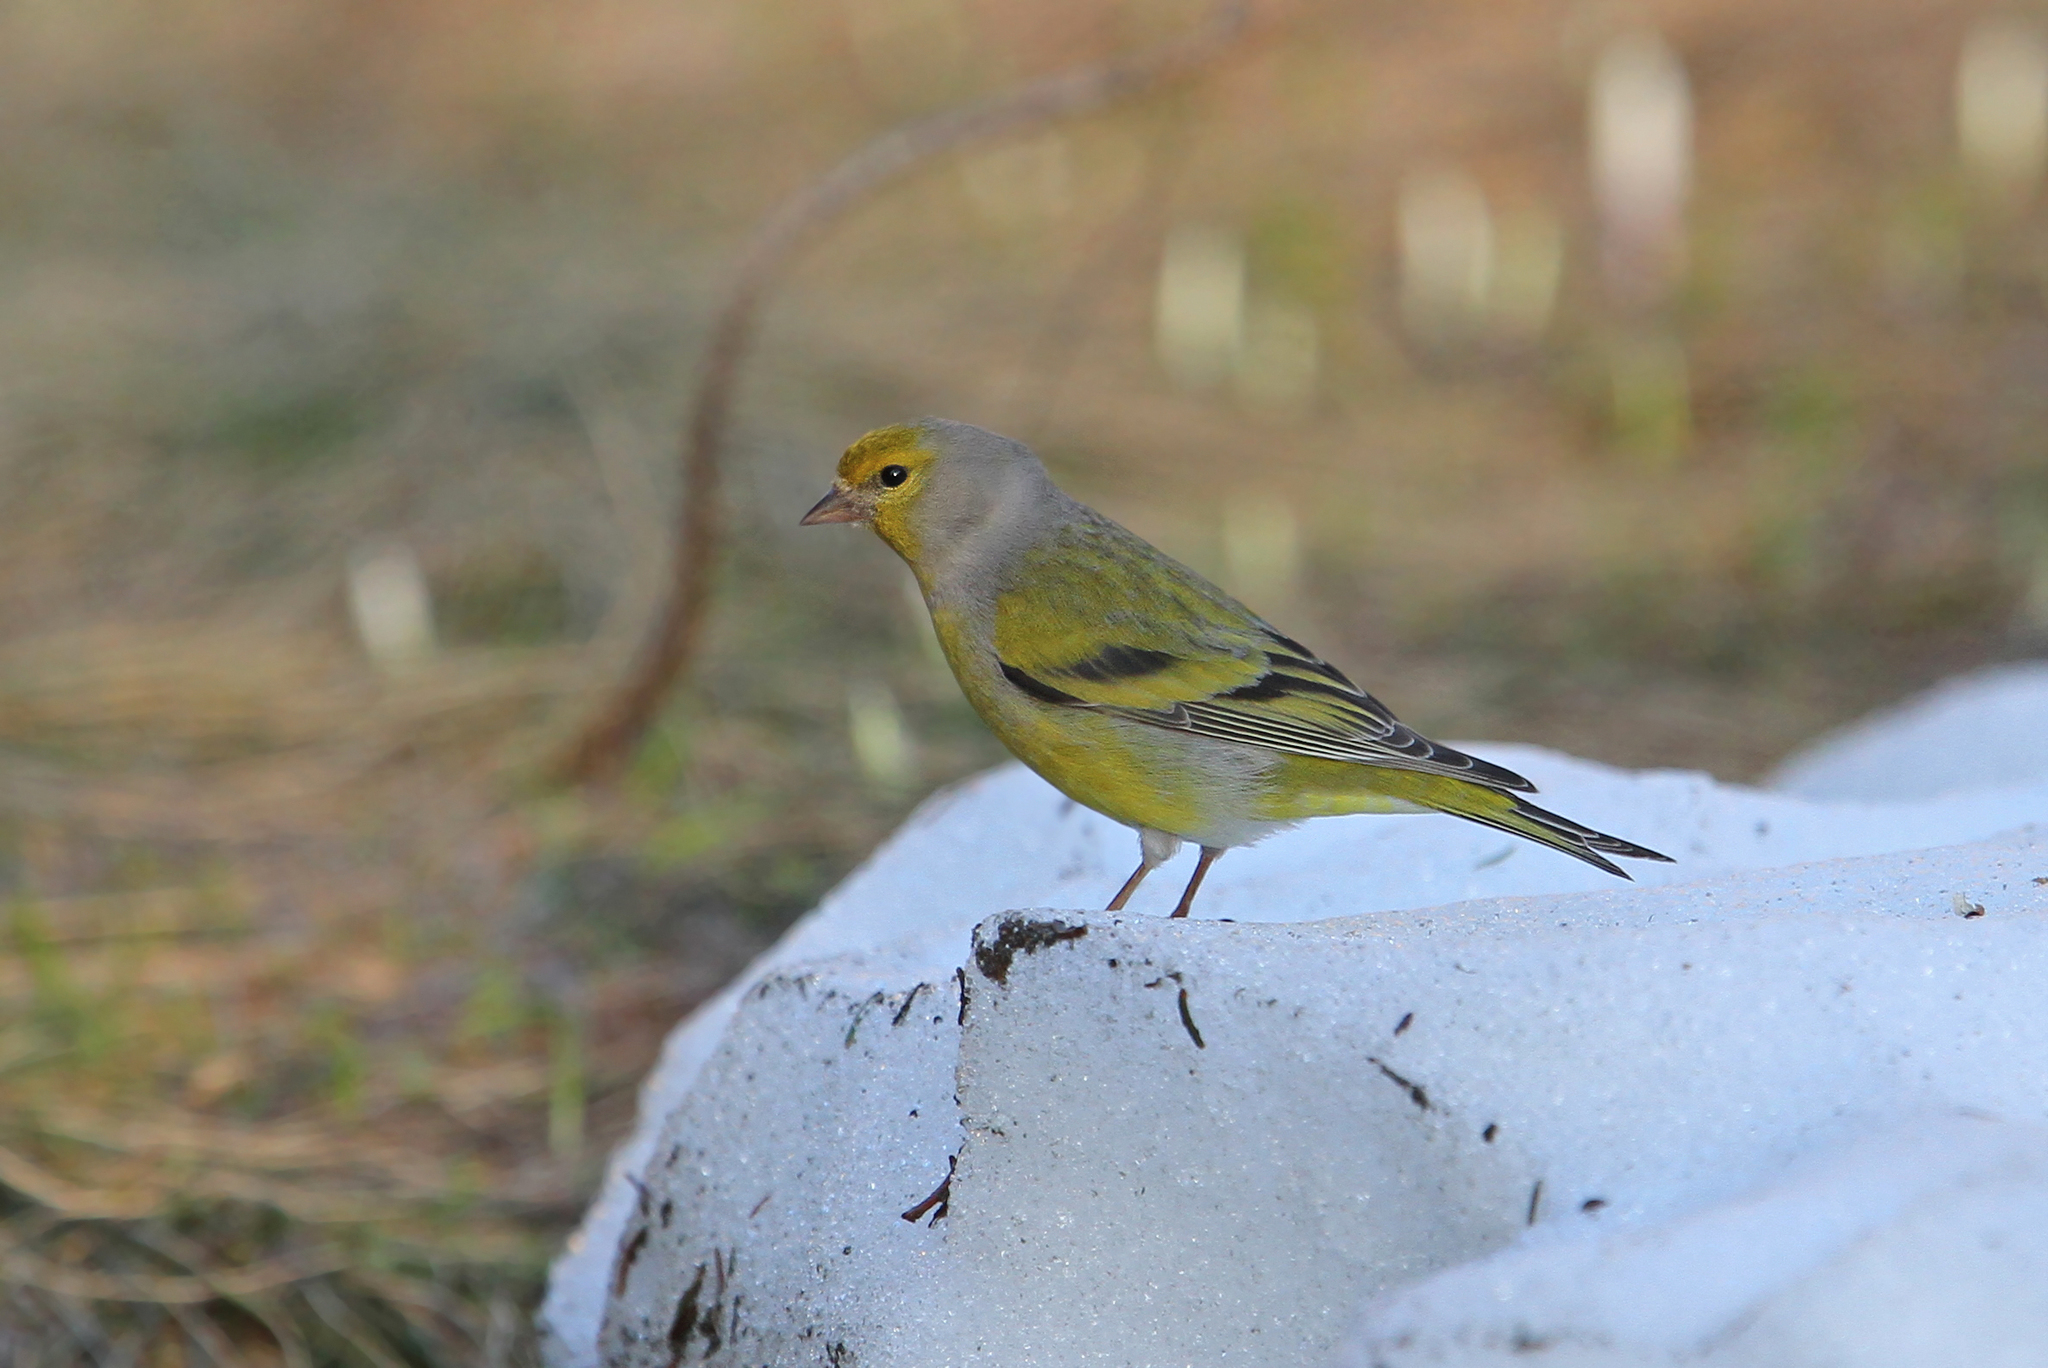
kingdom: Animalia
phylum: Chordata
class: Aves
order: Passeriformes
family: Fringillidae
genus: Carduelis
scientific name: Carduelis citrinella
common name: Citril finch
